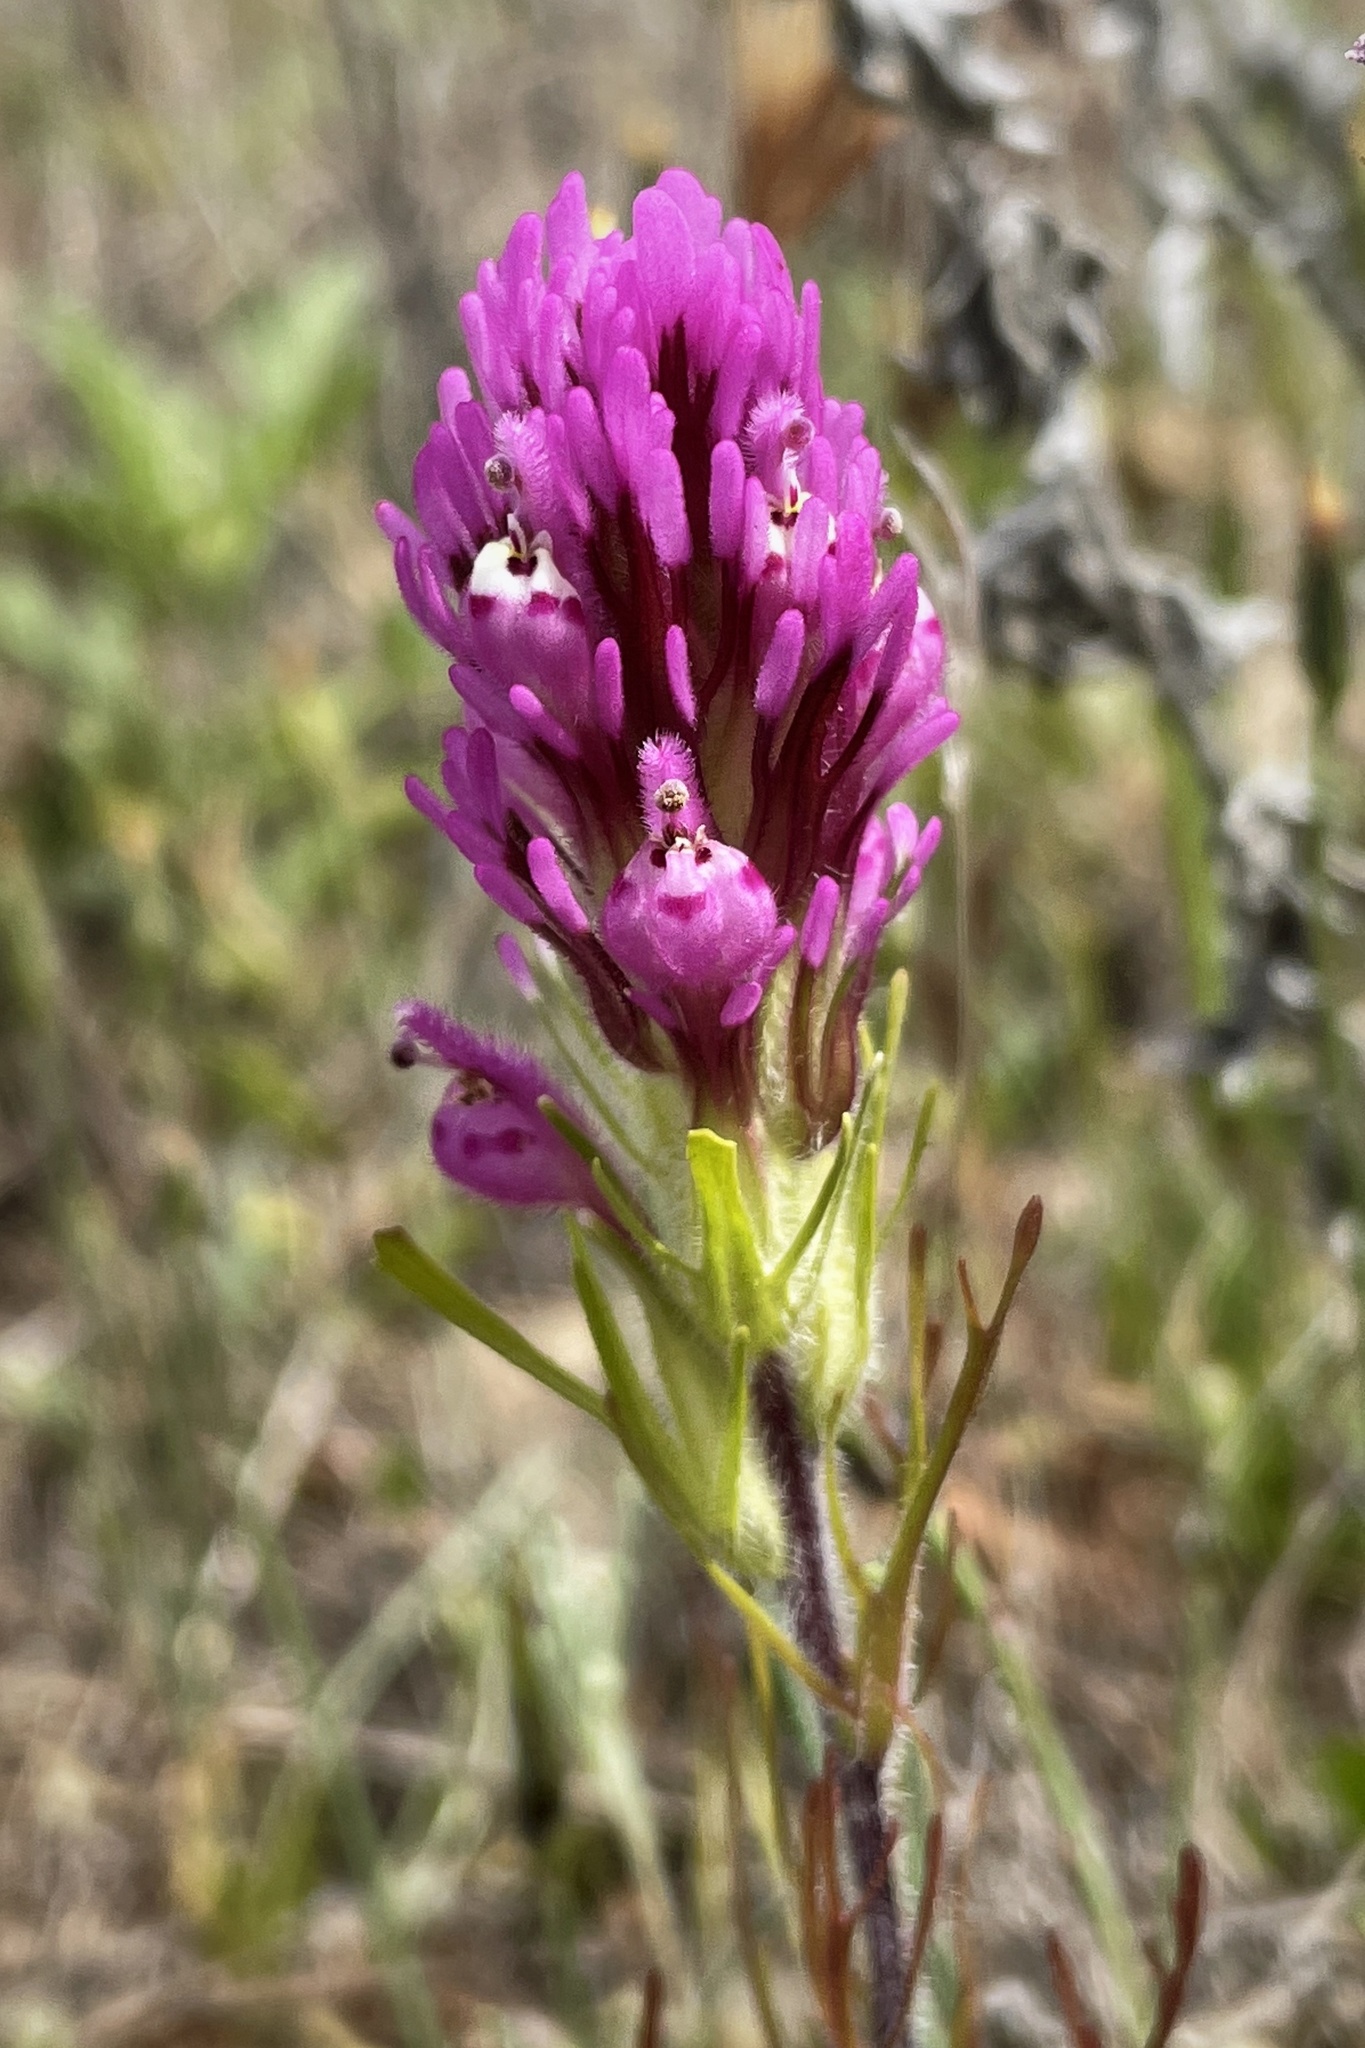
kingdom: Plantae
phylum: Tracheophyta
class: Magnoliopsida
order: Lamiales
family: Orobanchaceae
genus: Castilleja
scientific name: Castilleja exserta
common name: Purple owl-clover
